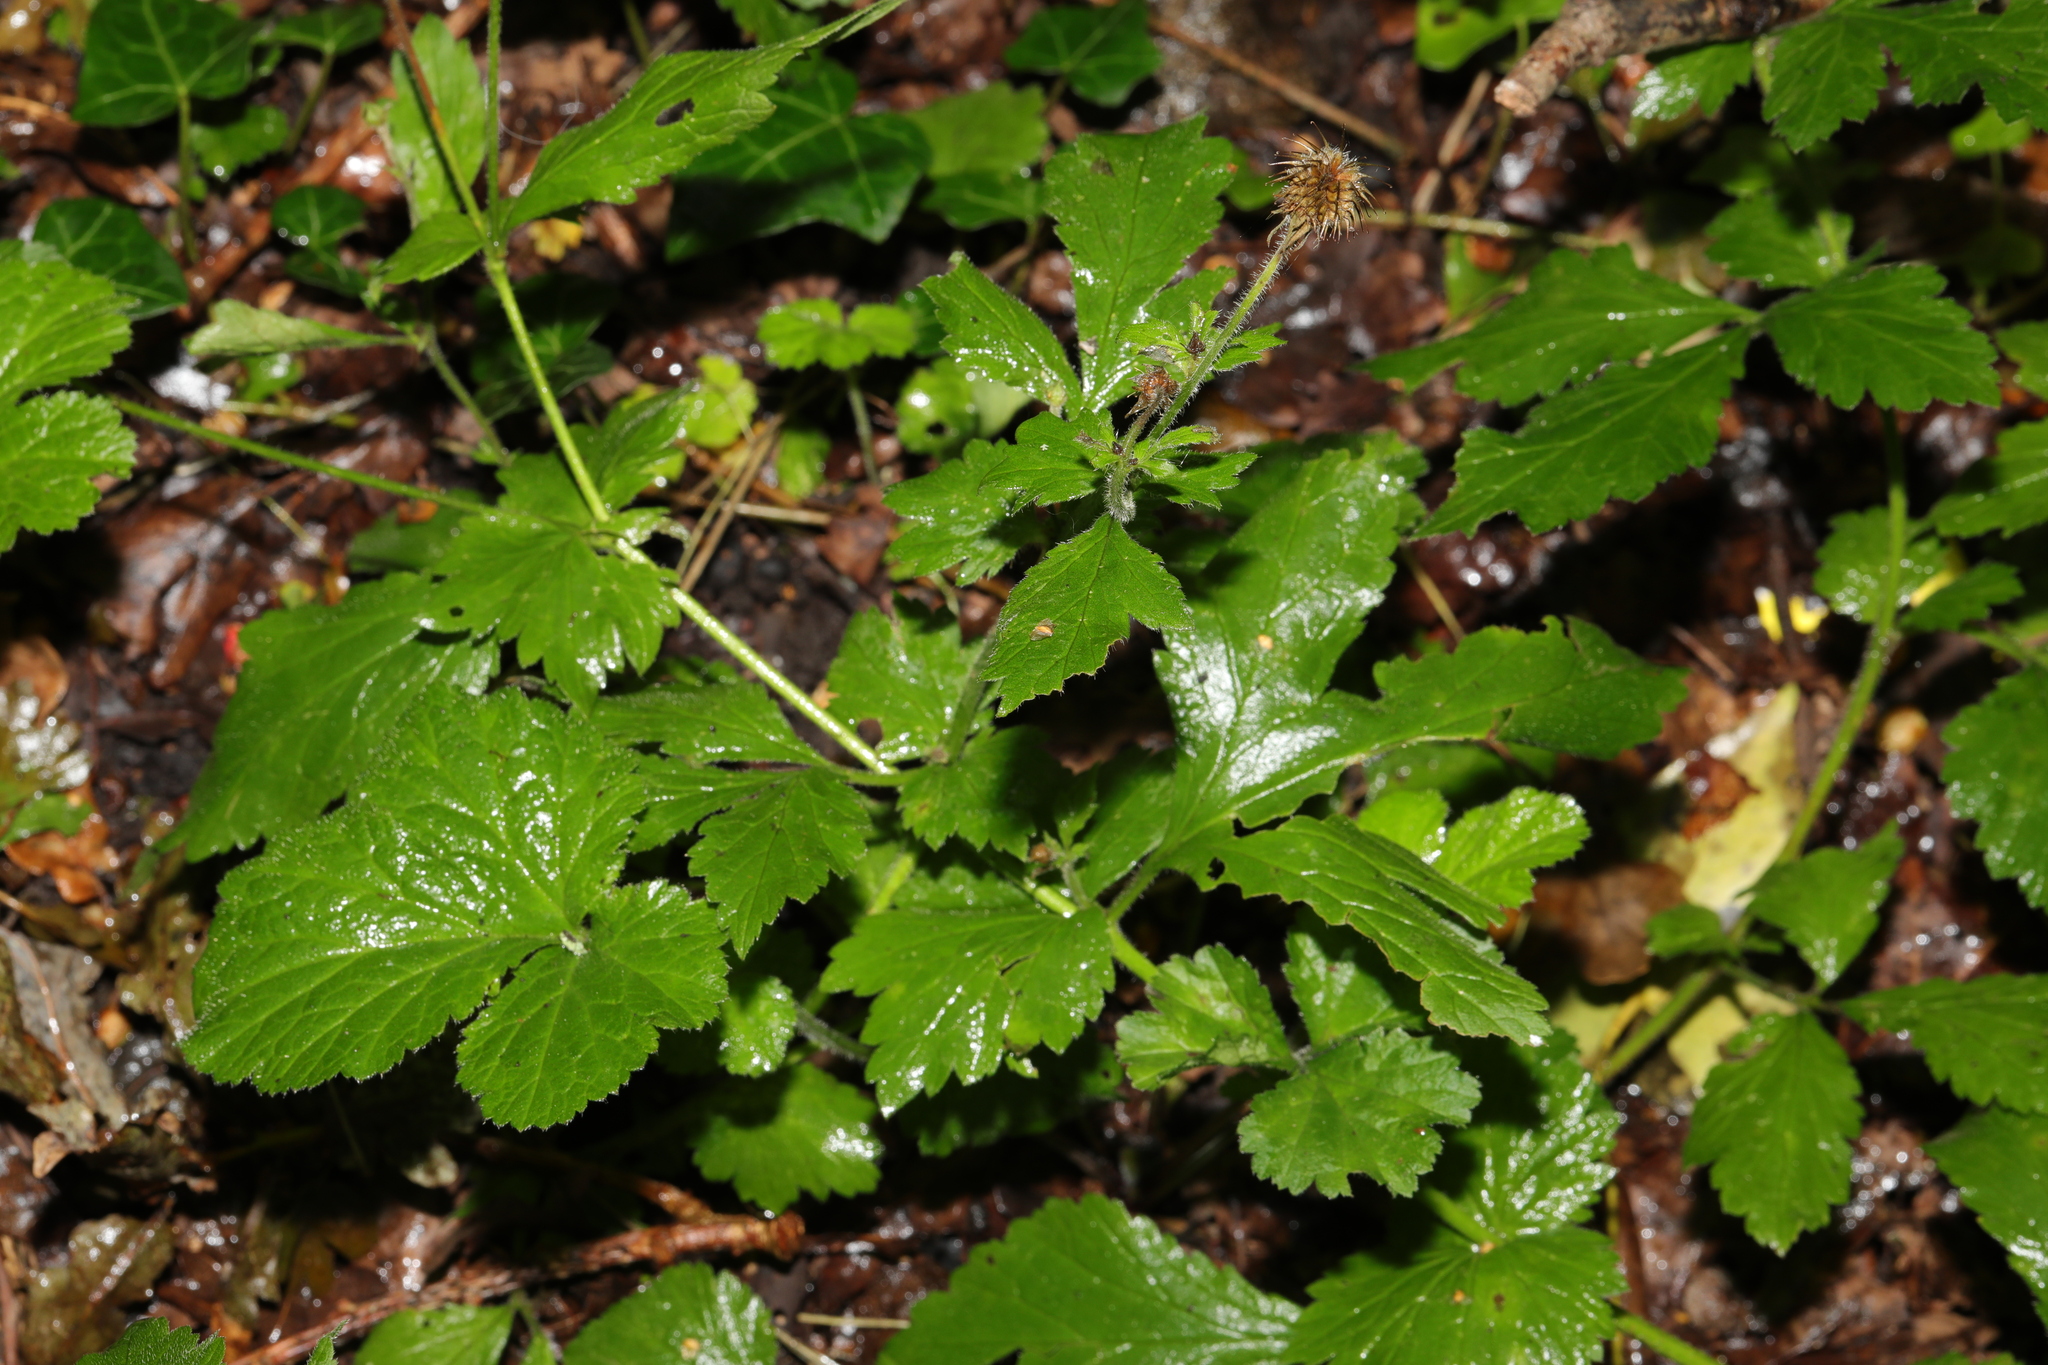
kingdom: Plantae
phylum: Tracheophyta
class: Magnoliopsida
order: Rosales
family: Rosaceae
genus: Geum
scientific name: Geum urbanum
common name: Wood avens
